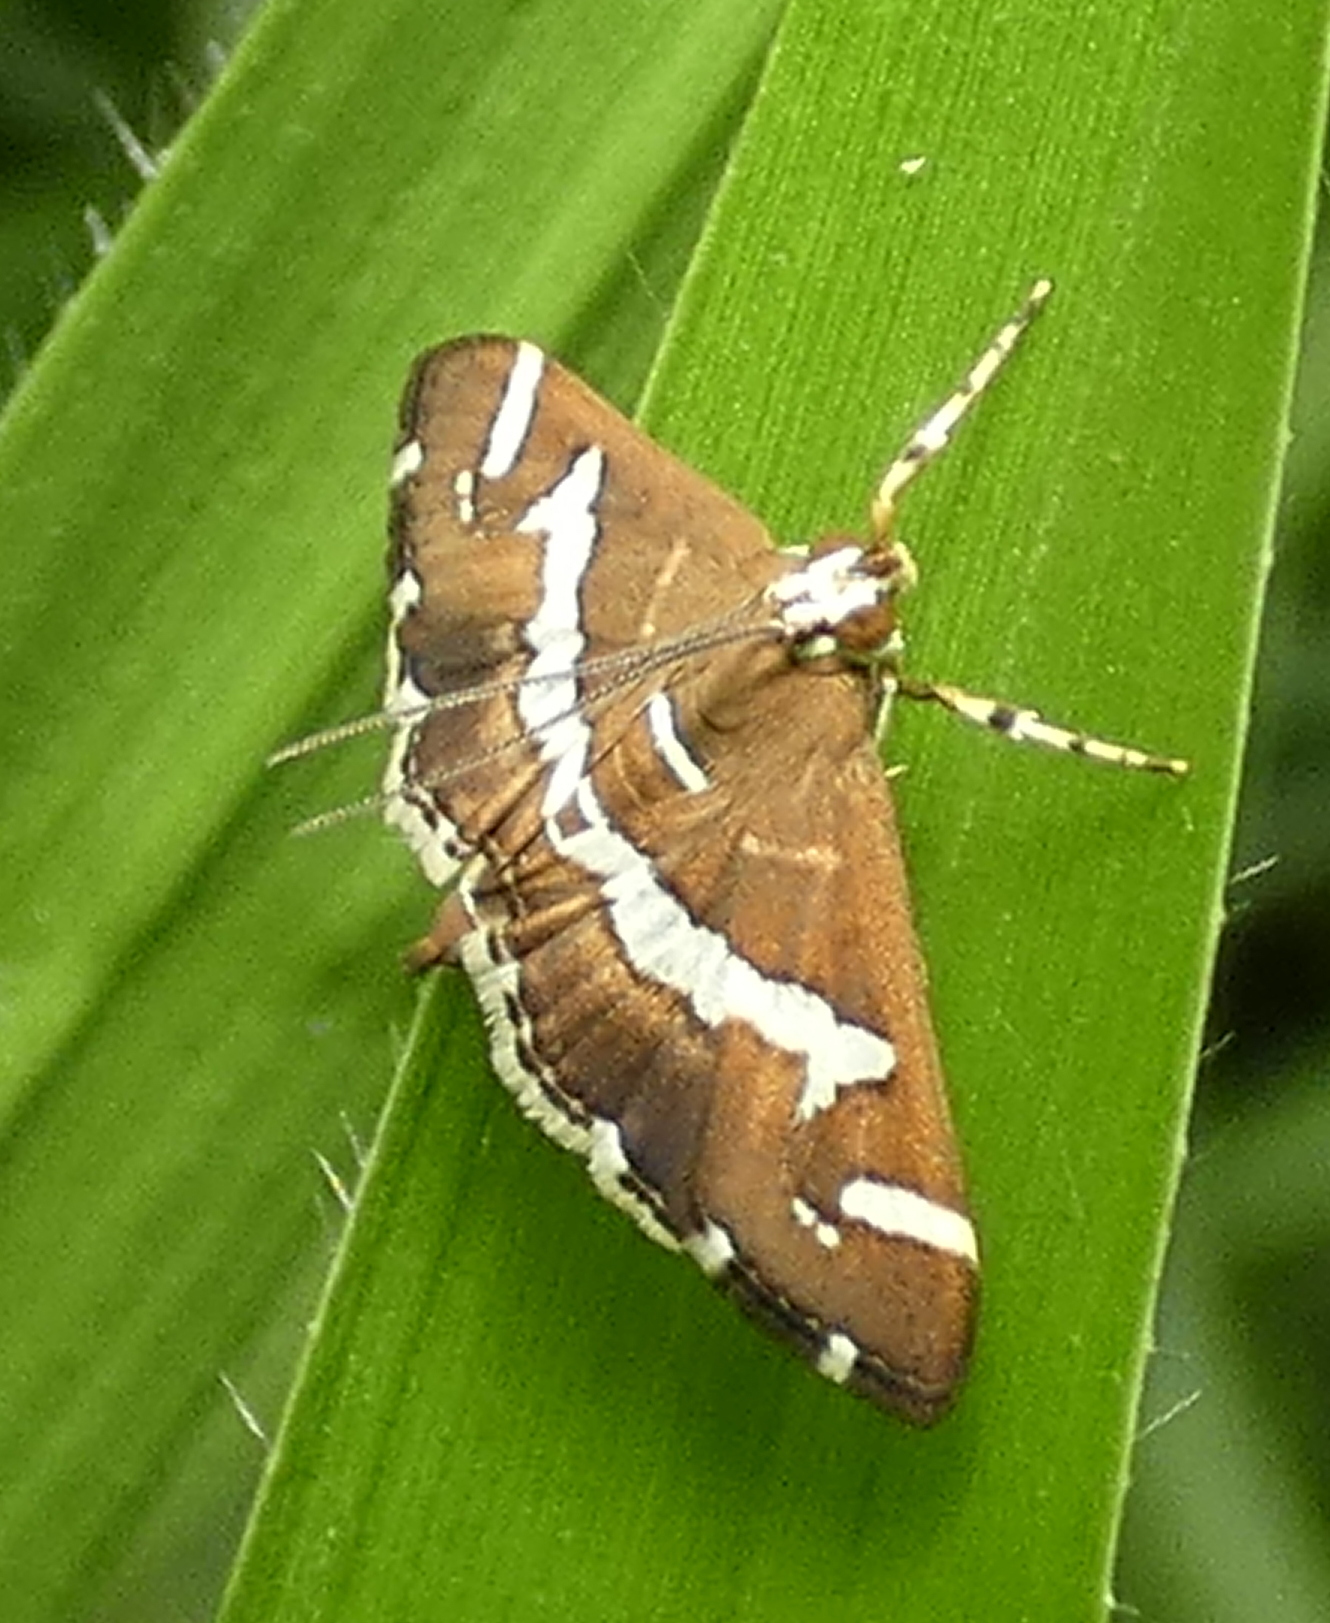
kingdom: Animalia
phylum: Arthropoda
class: Insecta
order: Lepidoptera
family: Crambidae
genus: Spoladea
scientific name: Spoladea recurvalis
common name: Beet webworm moth
